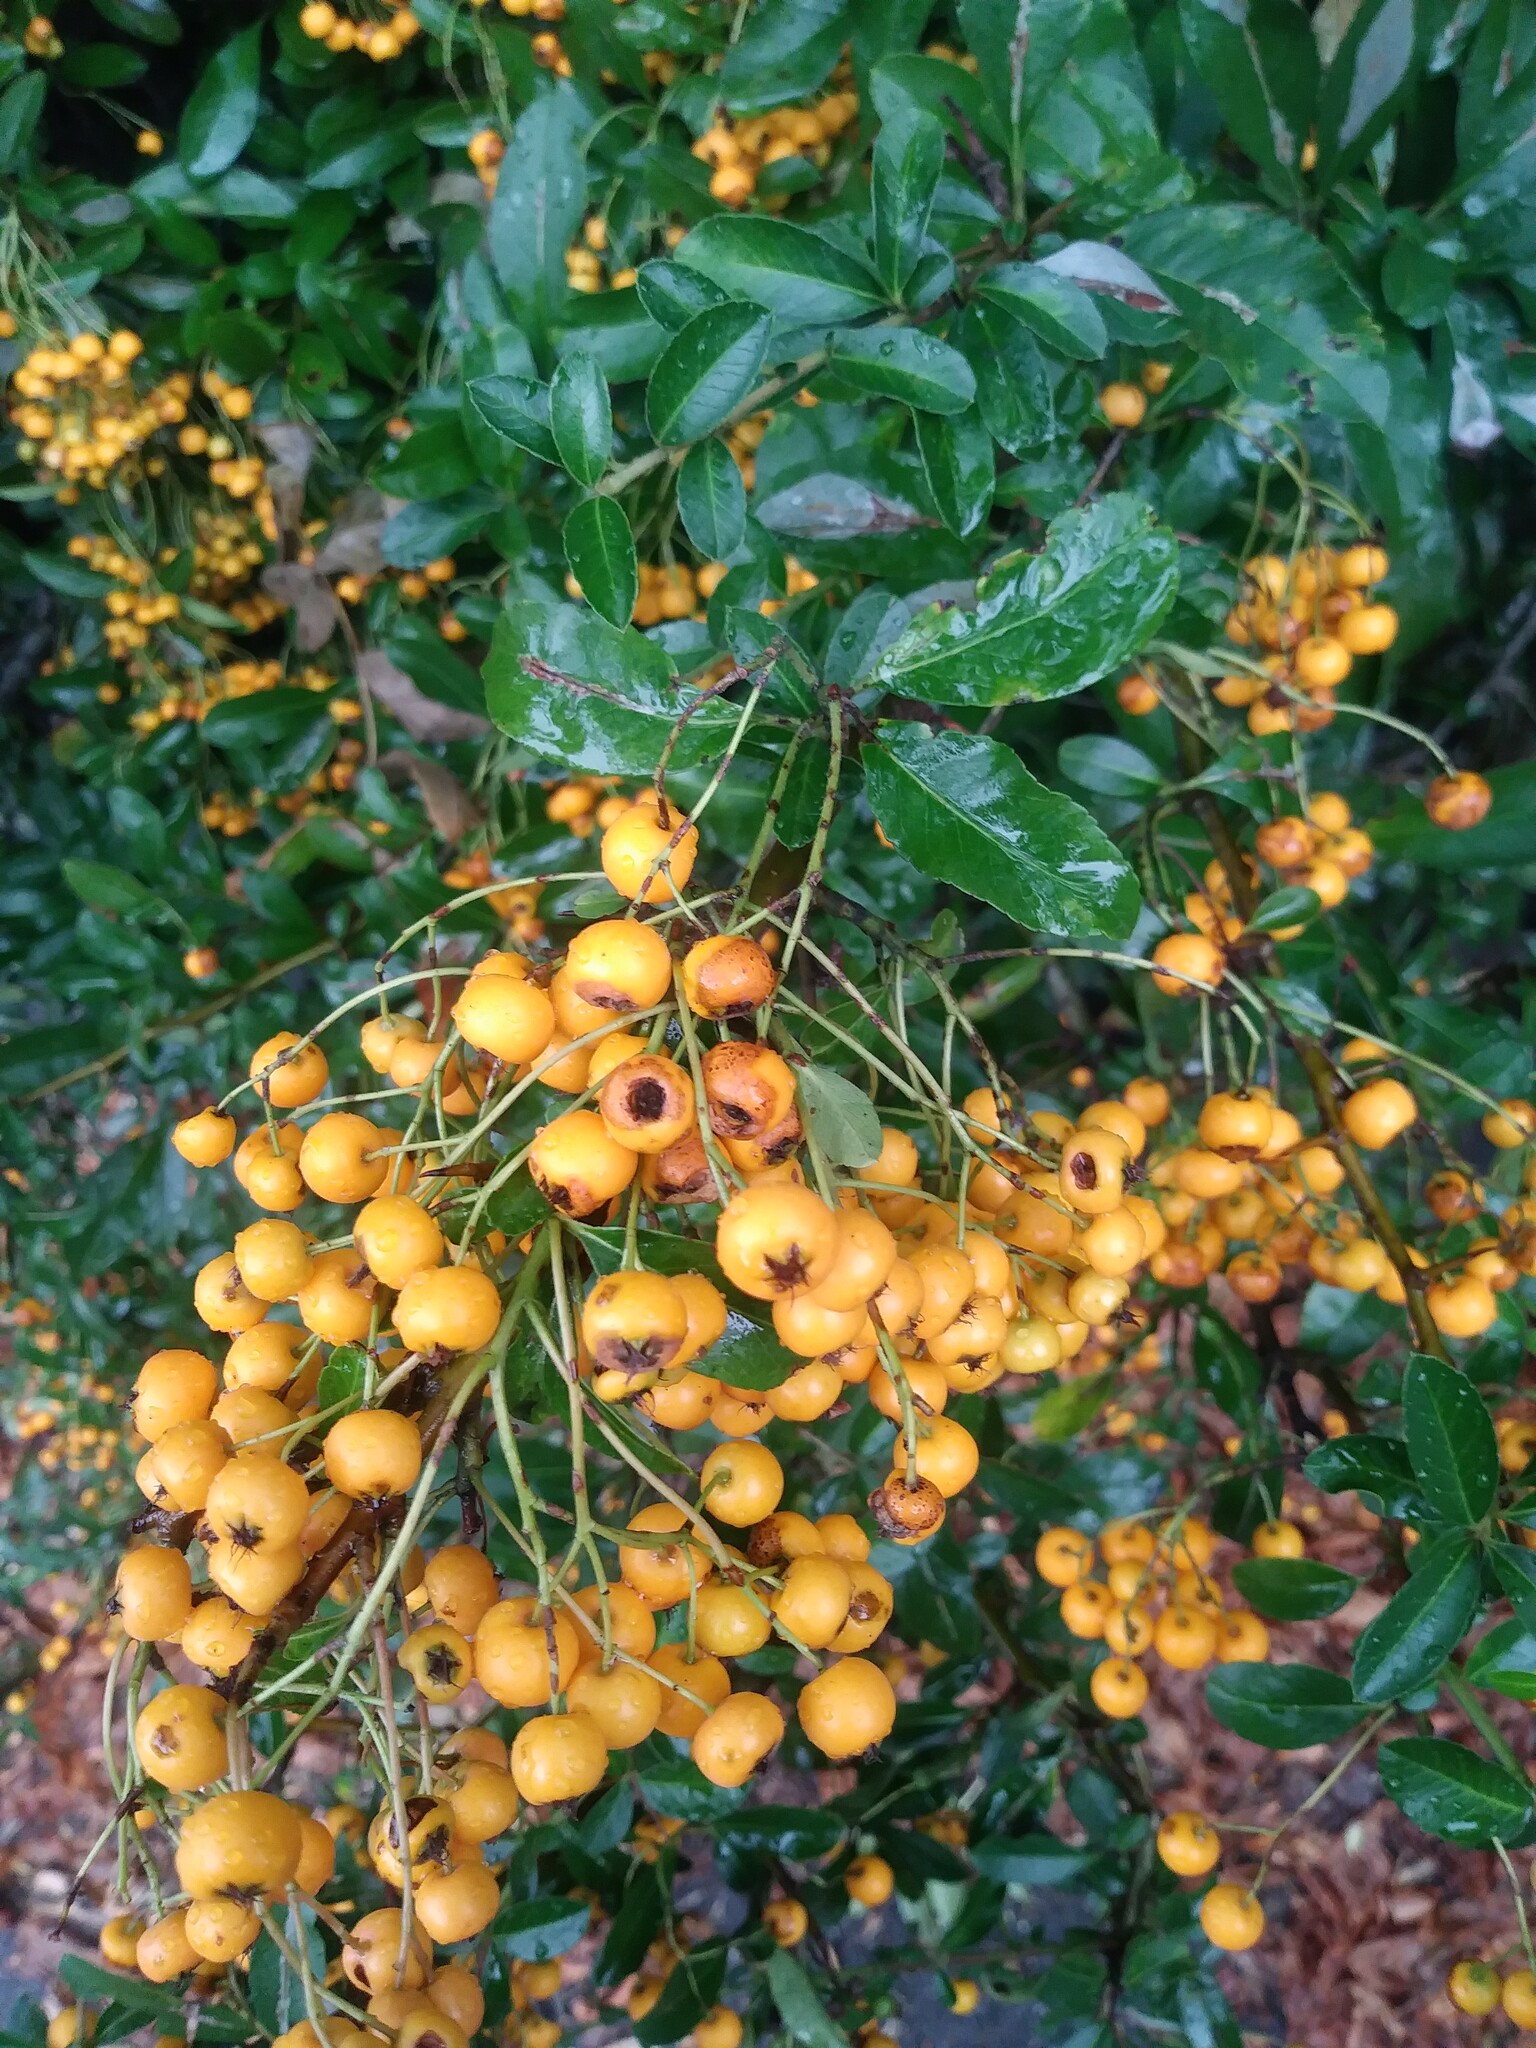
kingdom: Plantae
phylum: Tracheophyta
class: Magnoliopsida
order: Rosales
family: Rosaceae
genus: Pyracantha
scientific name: Pyracantha coccinea
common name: Firethorn
